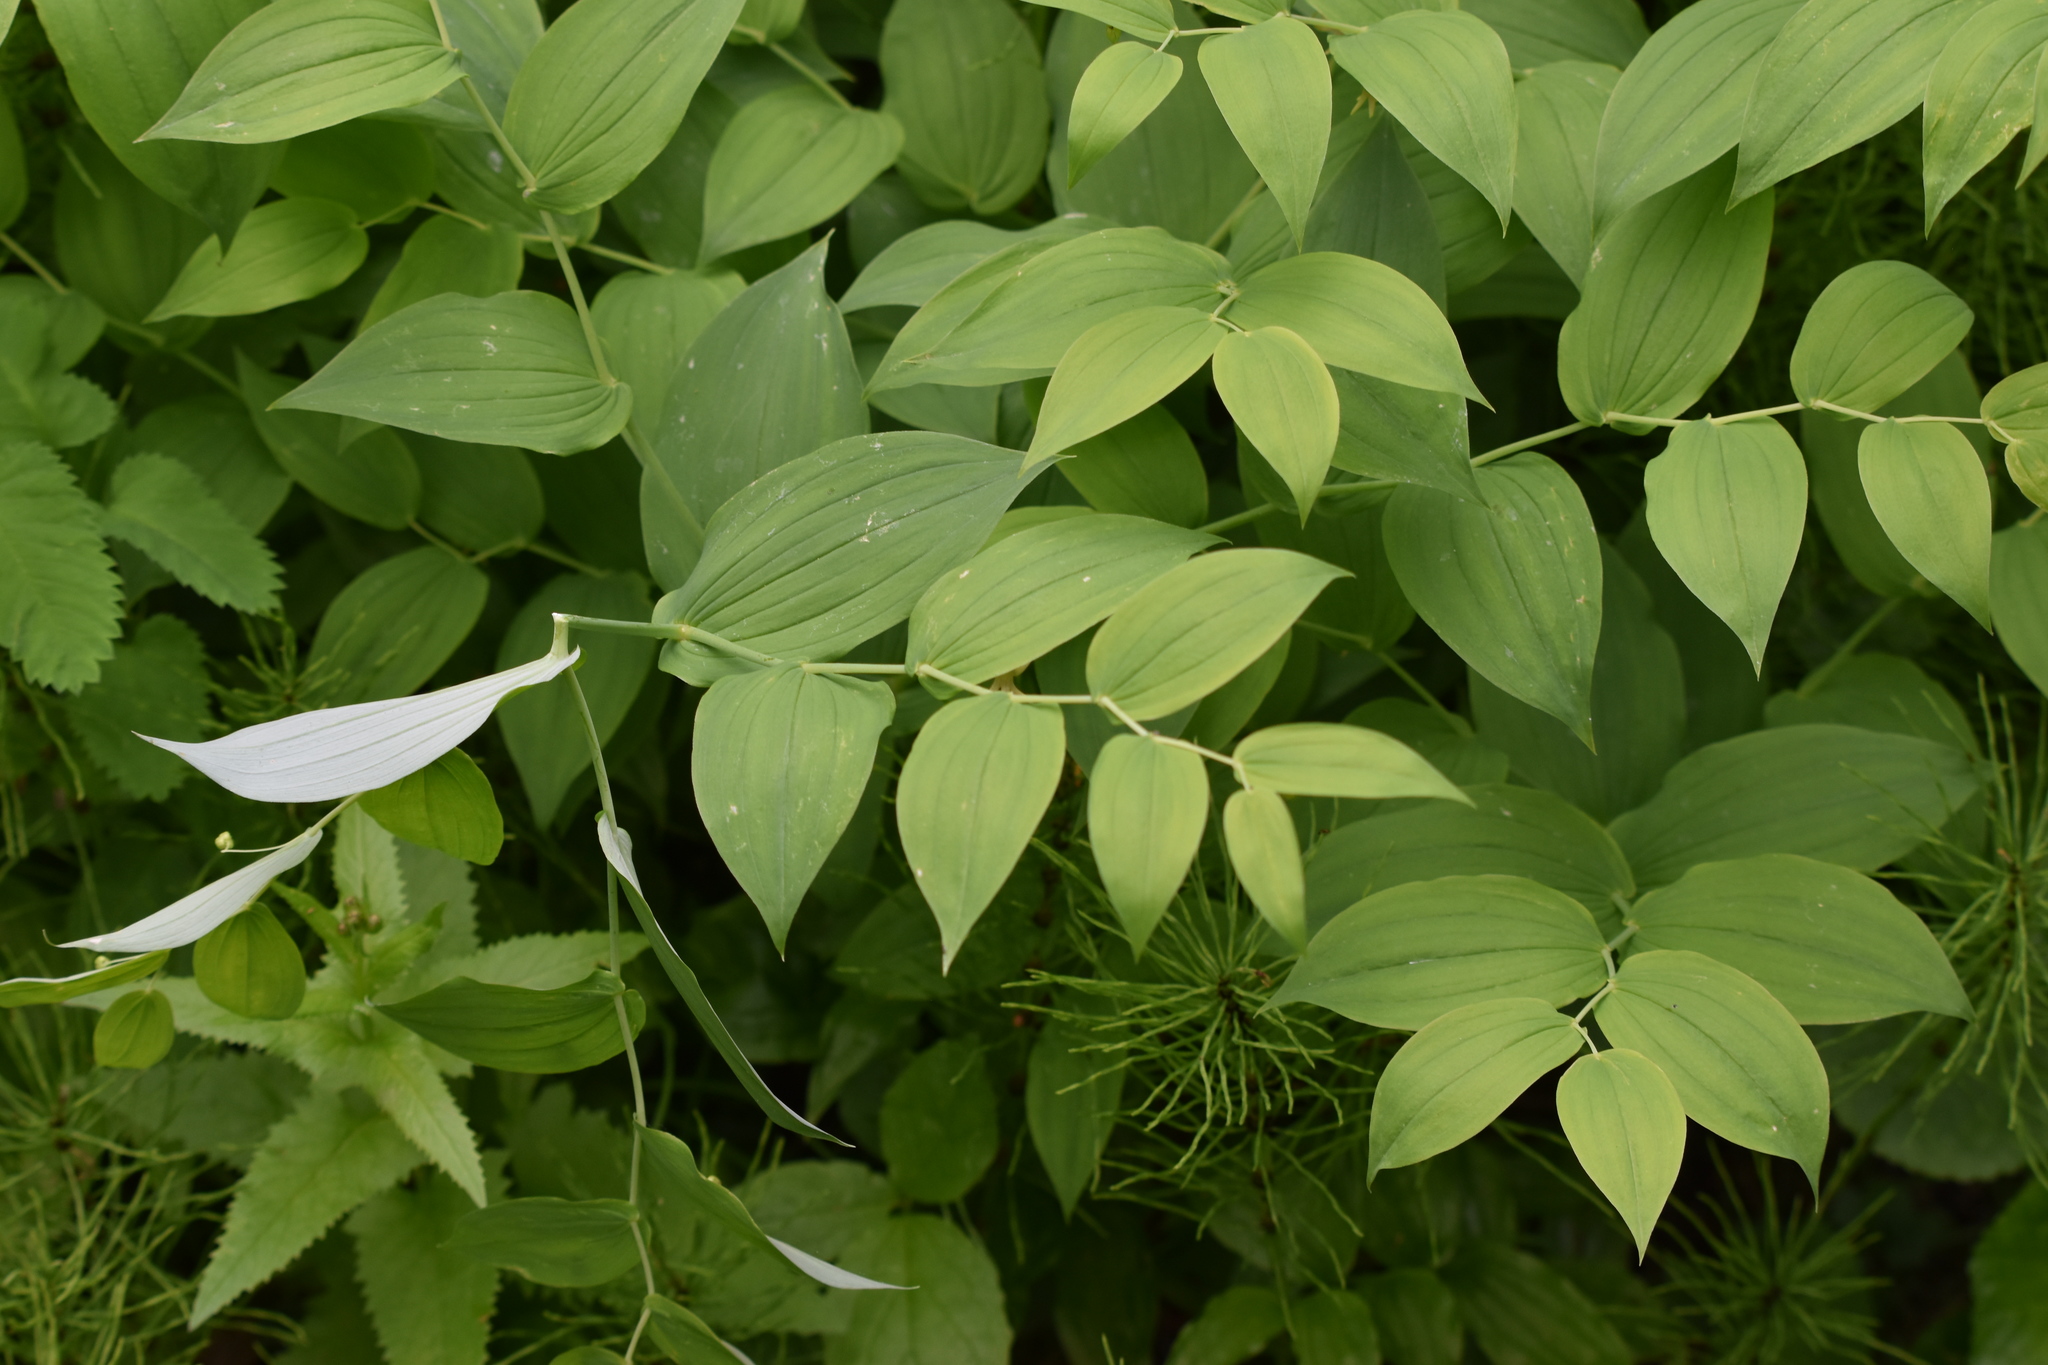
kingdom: Plantae
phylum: Tracheophyta
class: Liliopsida
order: Liliales
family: Liliaceae
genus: Streptopus
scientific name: Streptopus amplexifolius
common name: Clasp twisted stalk
